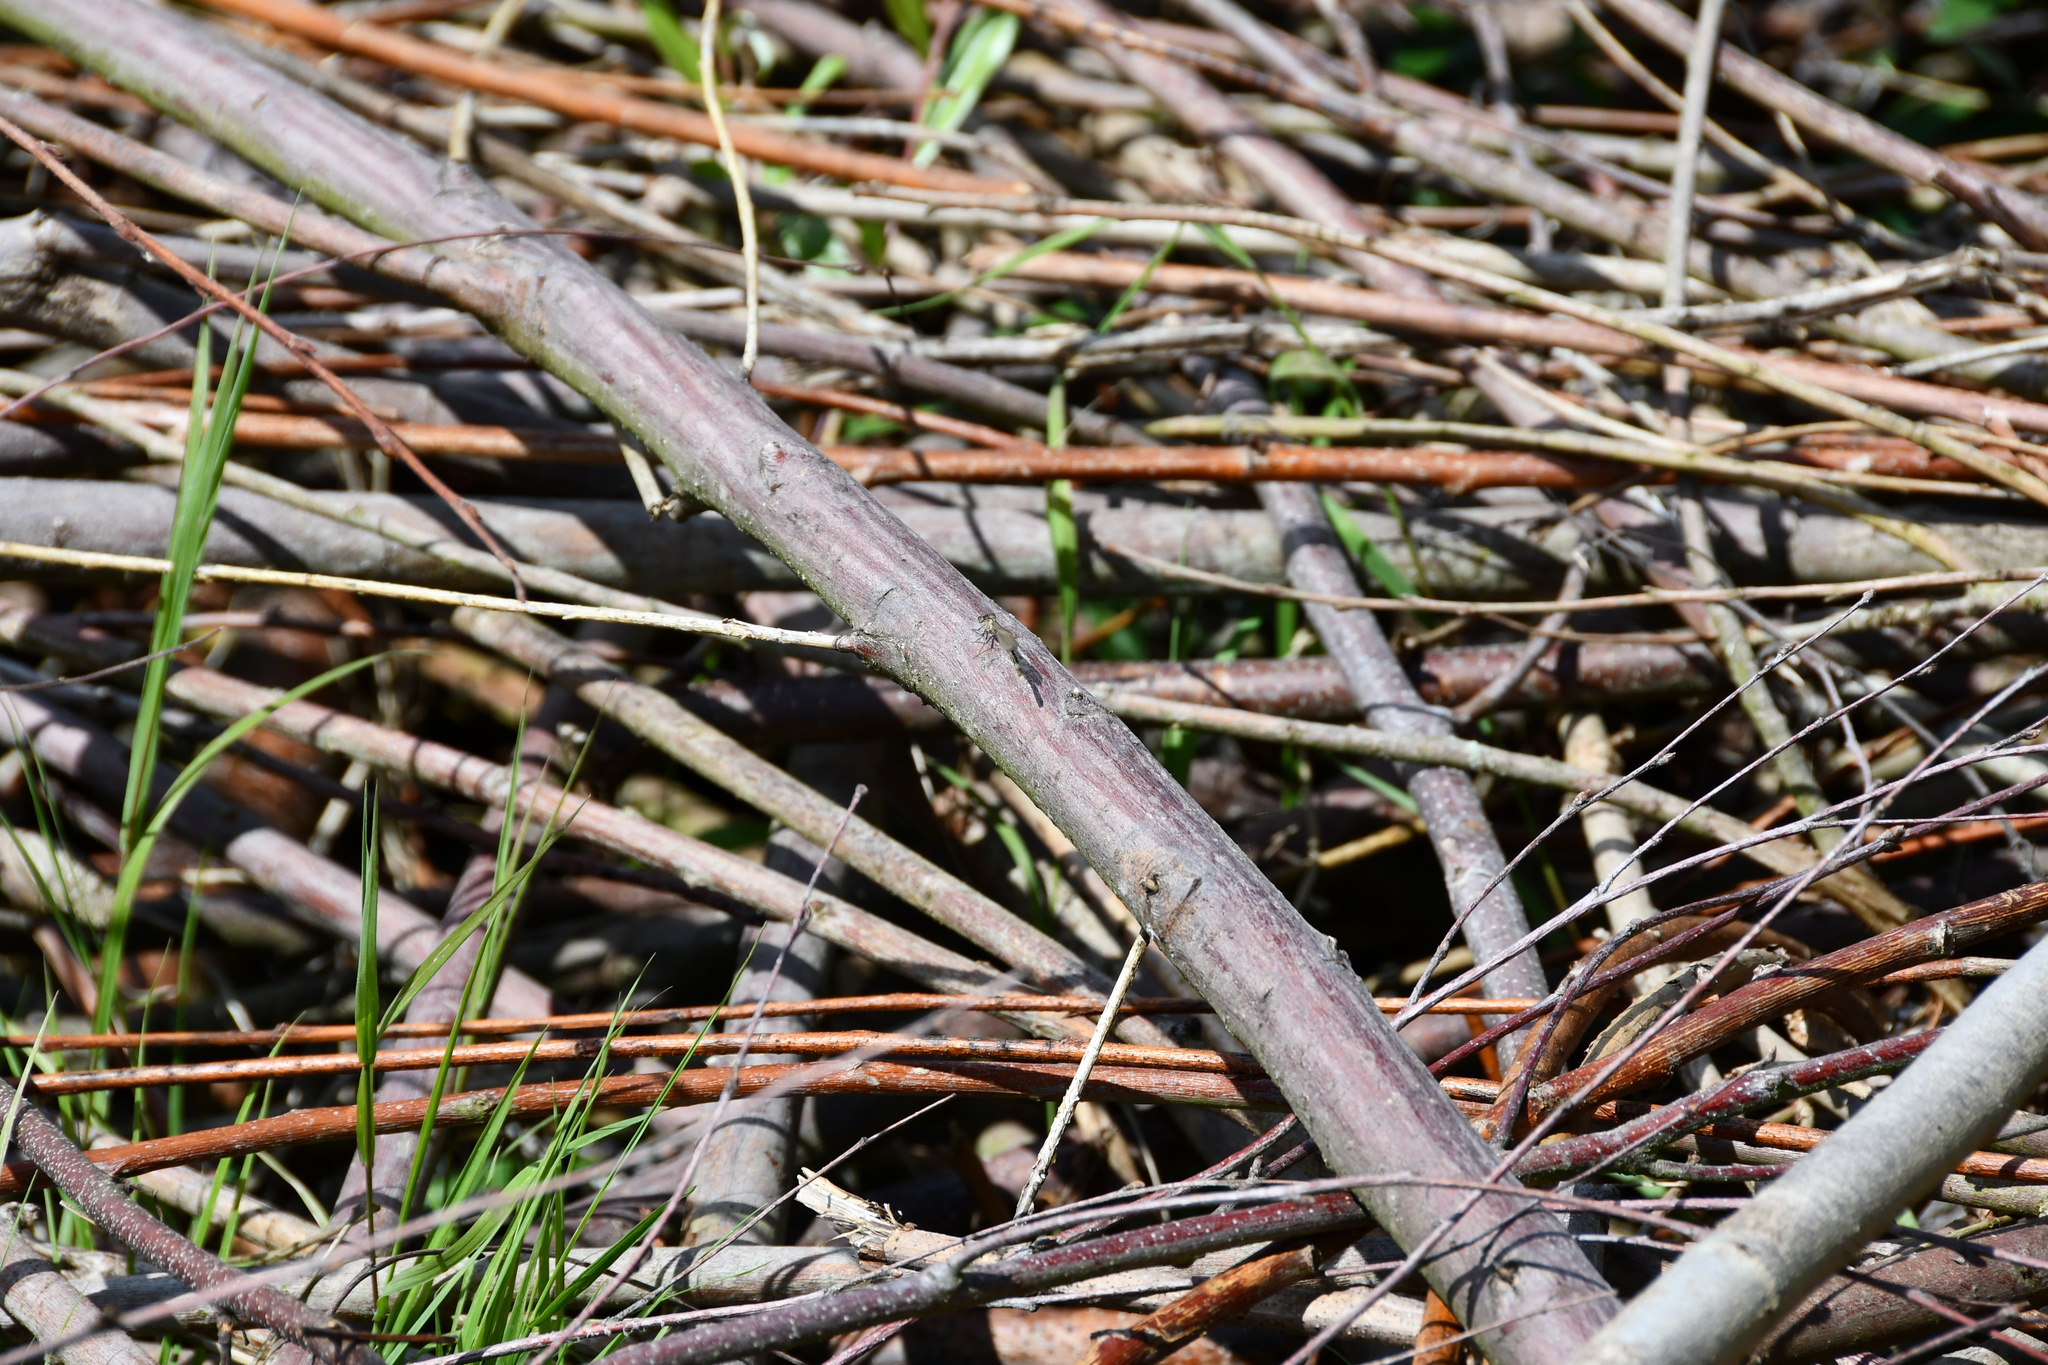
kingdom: Animalia
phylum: Arthropoda
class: Insecta
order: Odonata
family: Coenagrionidae
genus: Ischnura
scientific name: Ischnura elegans
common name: Blue-tailed damselfly
